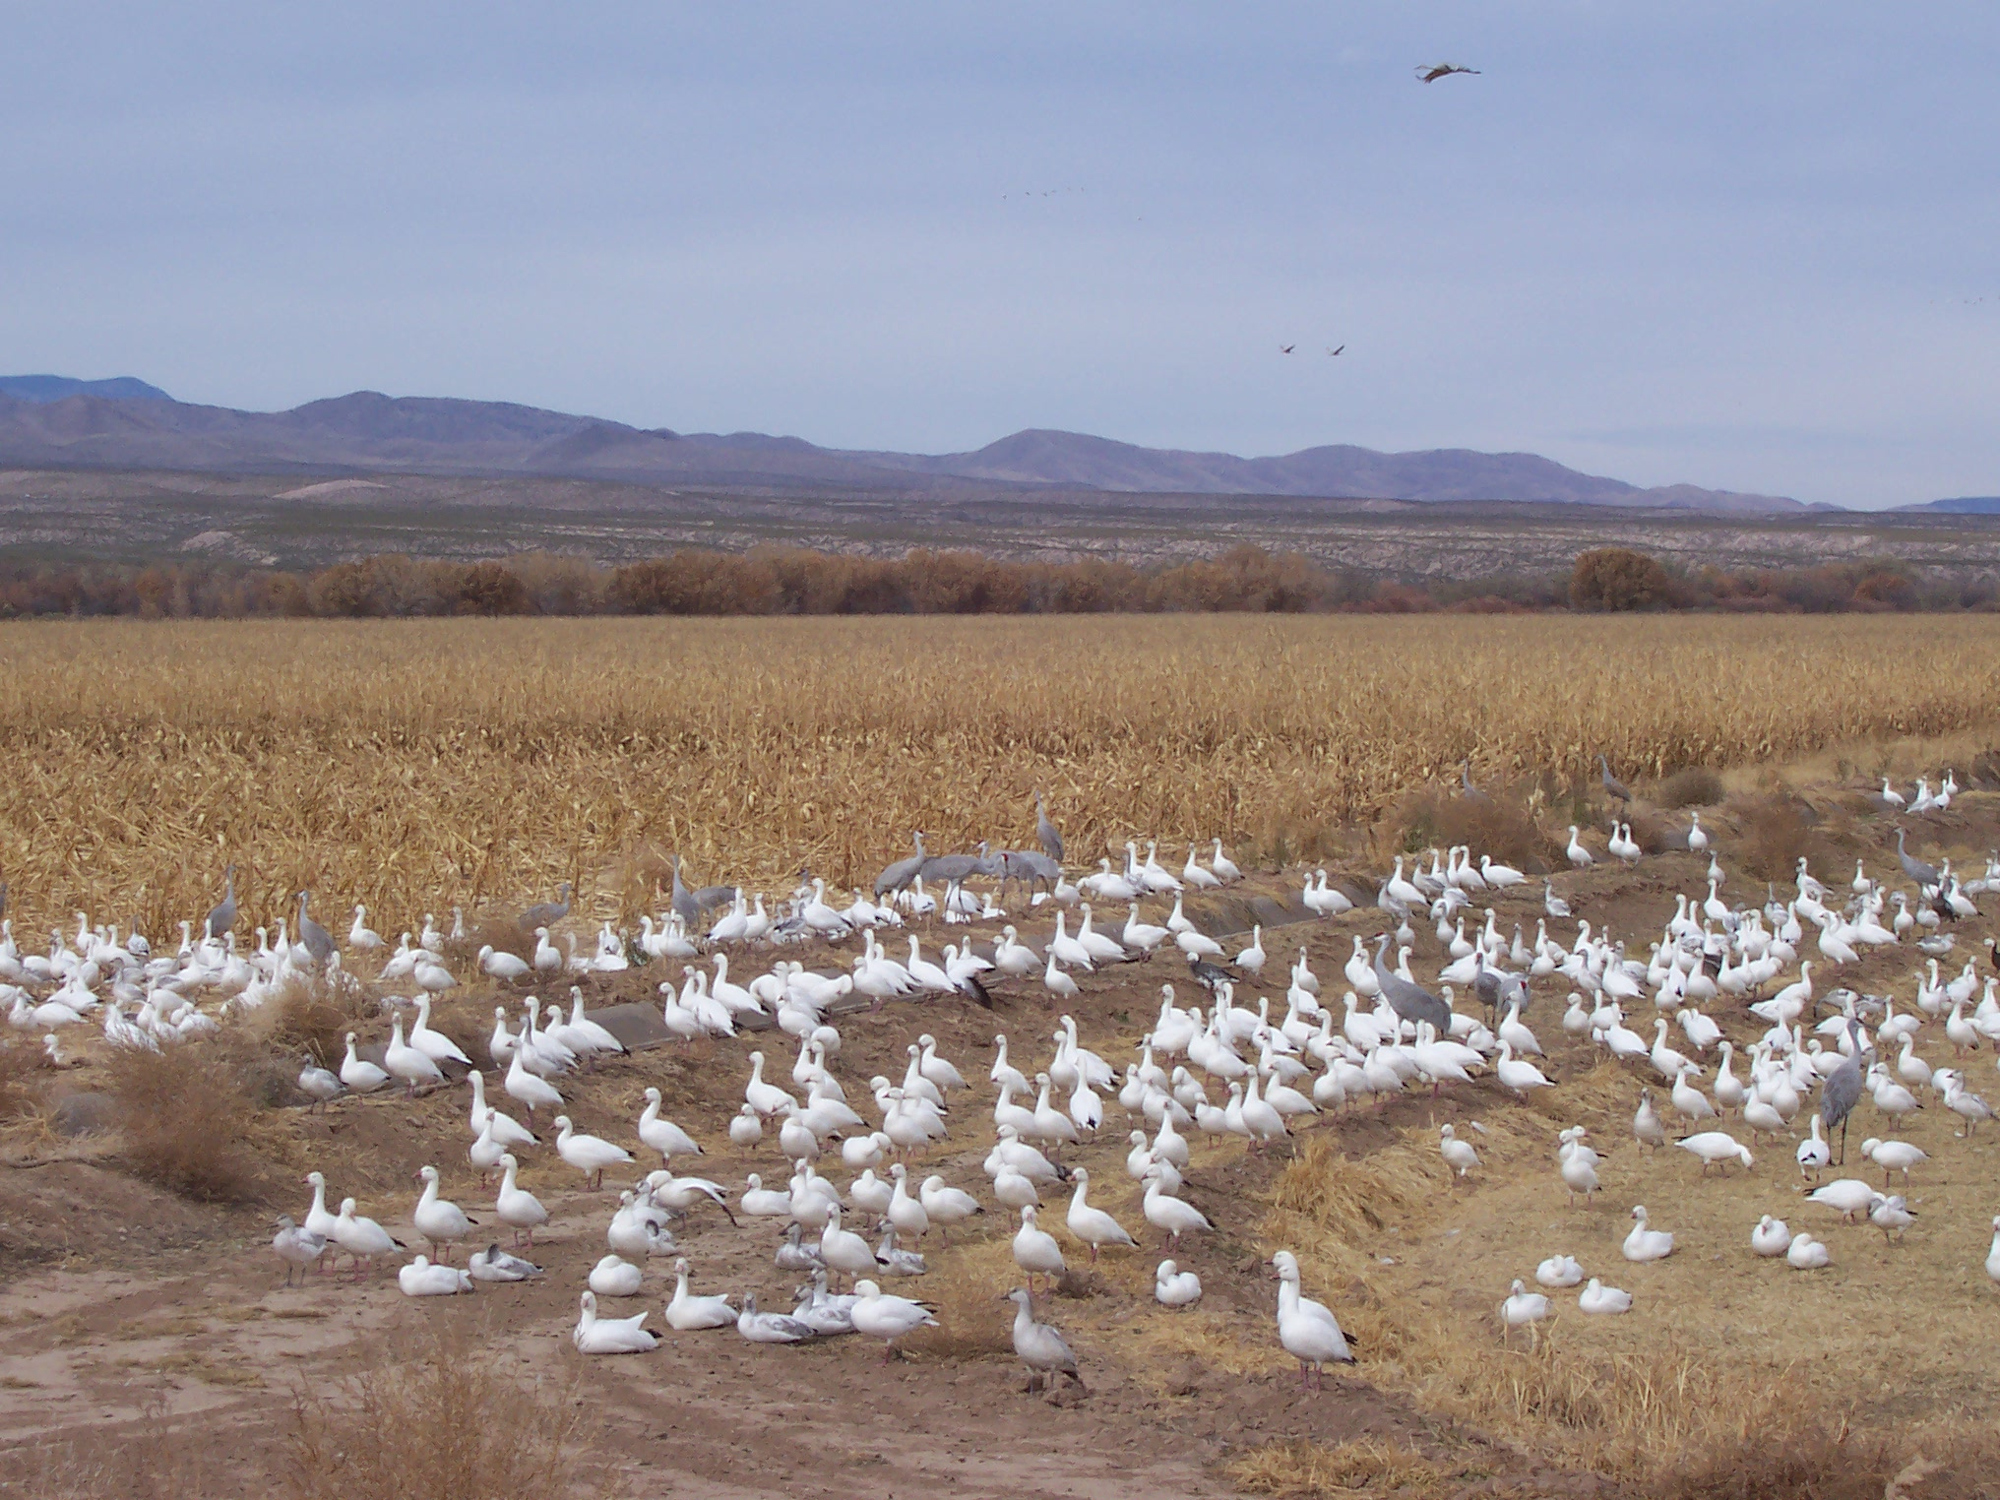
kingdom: Animalia
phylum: Chordata
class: Aves
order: Anseriformes
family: Anatidae
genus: Anser
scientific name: Anser caerulescens
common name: Snow goose
